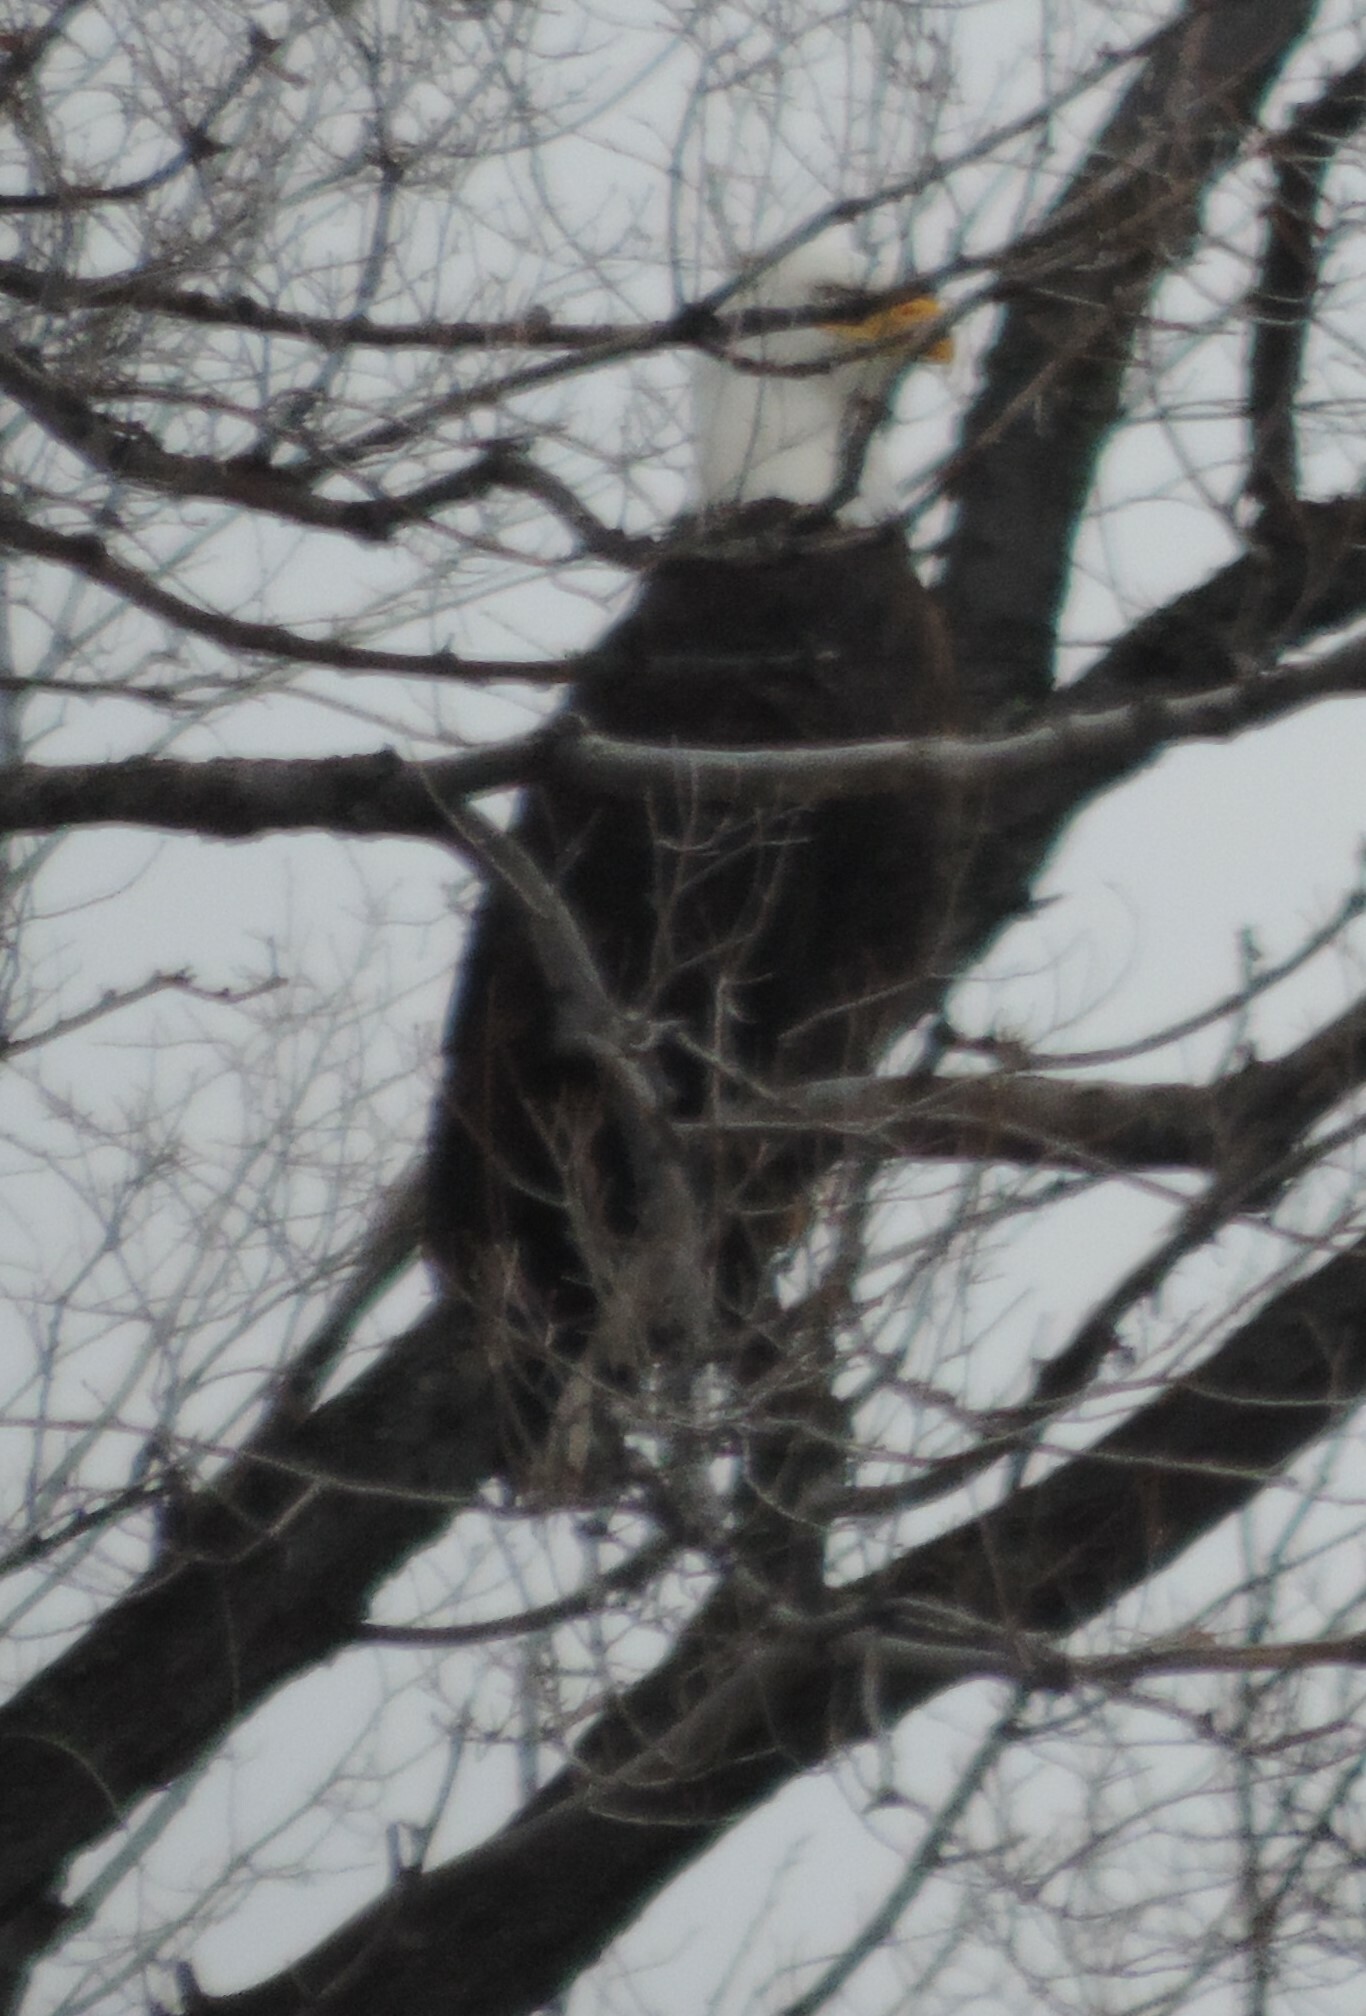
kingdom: Animalia
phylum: Chordata
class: Aves
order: Accipitriformes
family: Accipitridae
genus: Haliaeetus
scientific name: Haliaeetus leucocephalus
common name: Bald eagle
